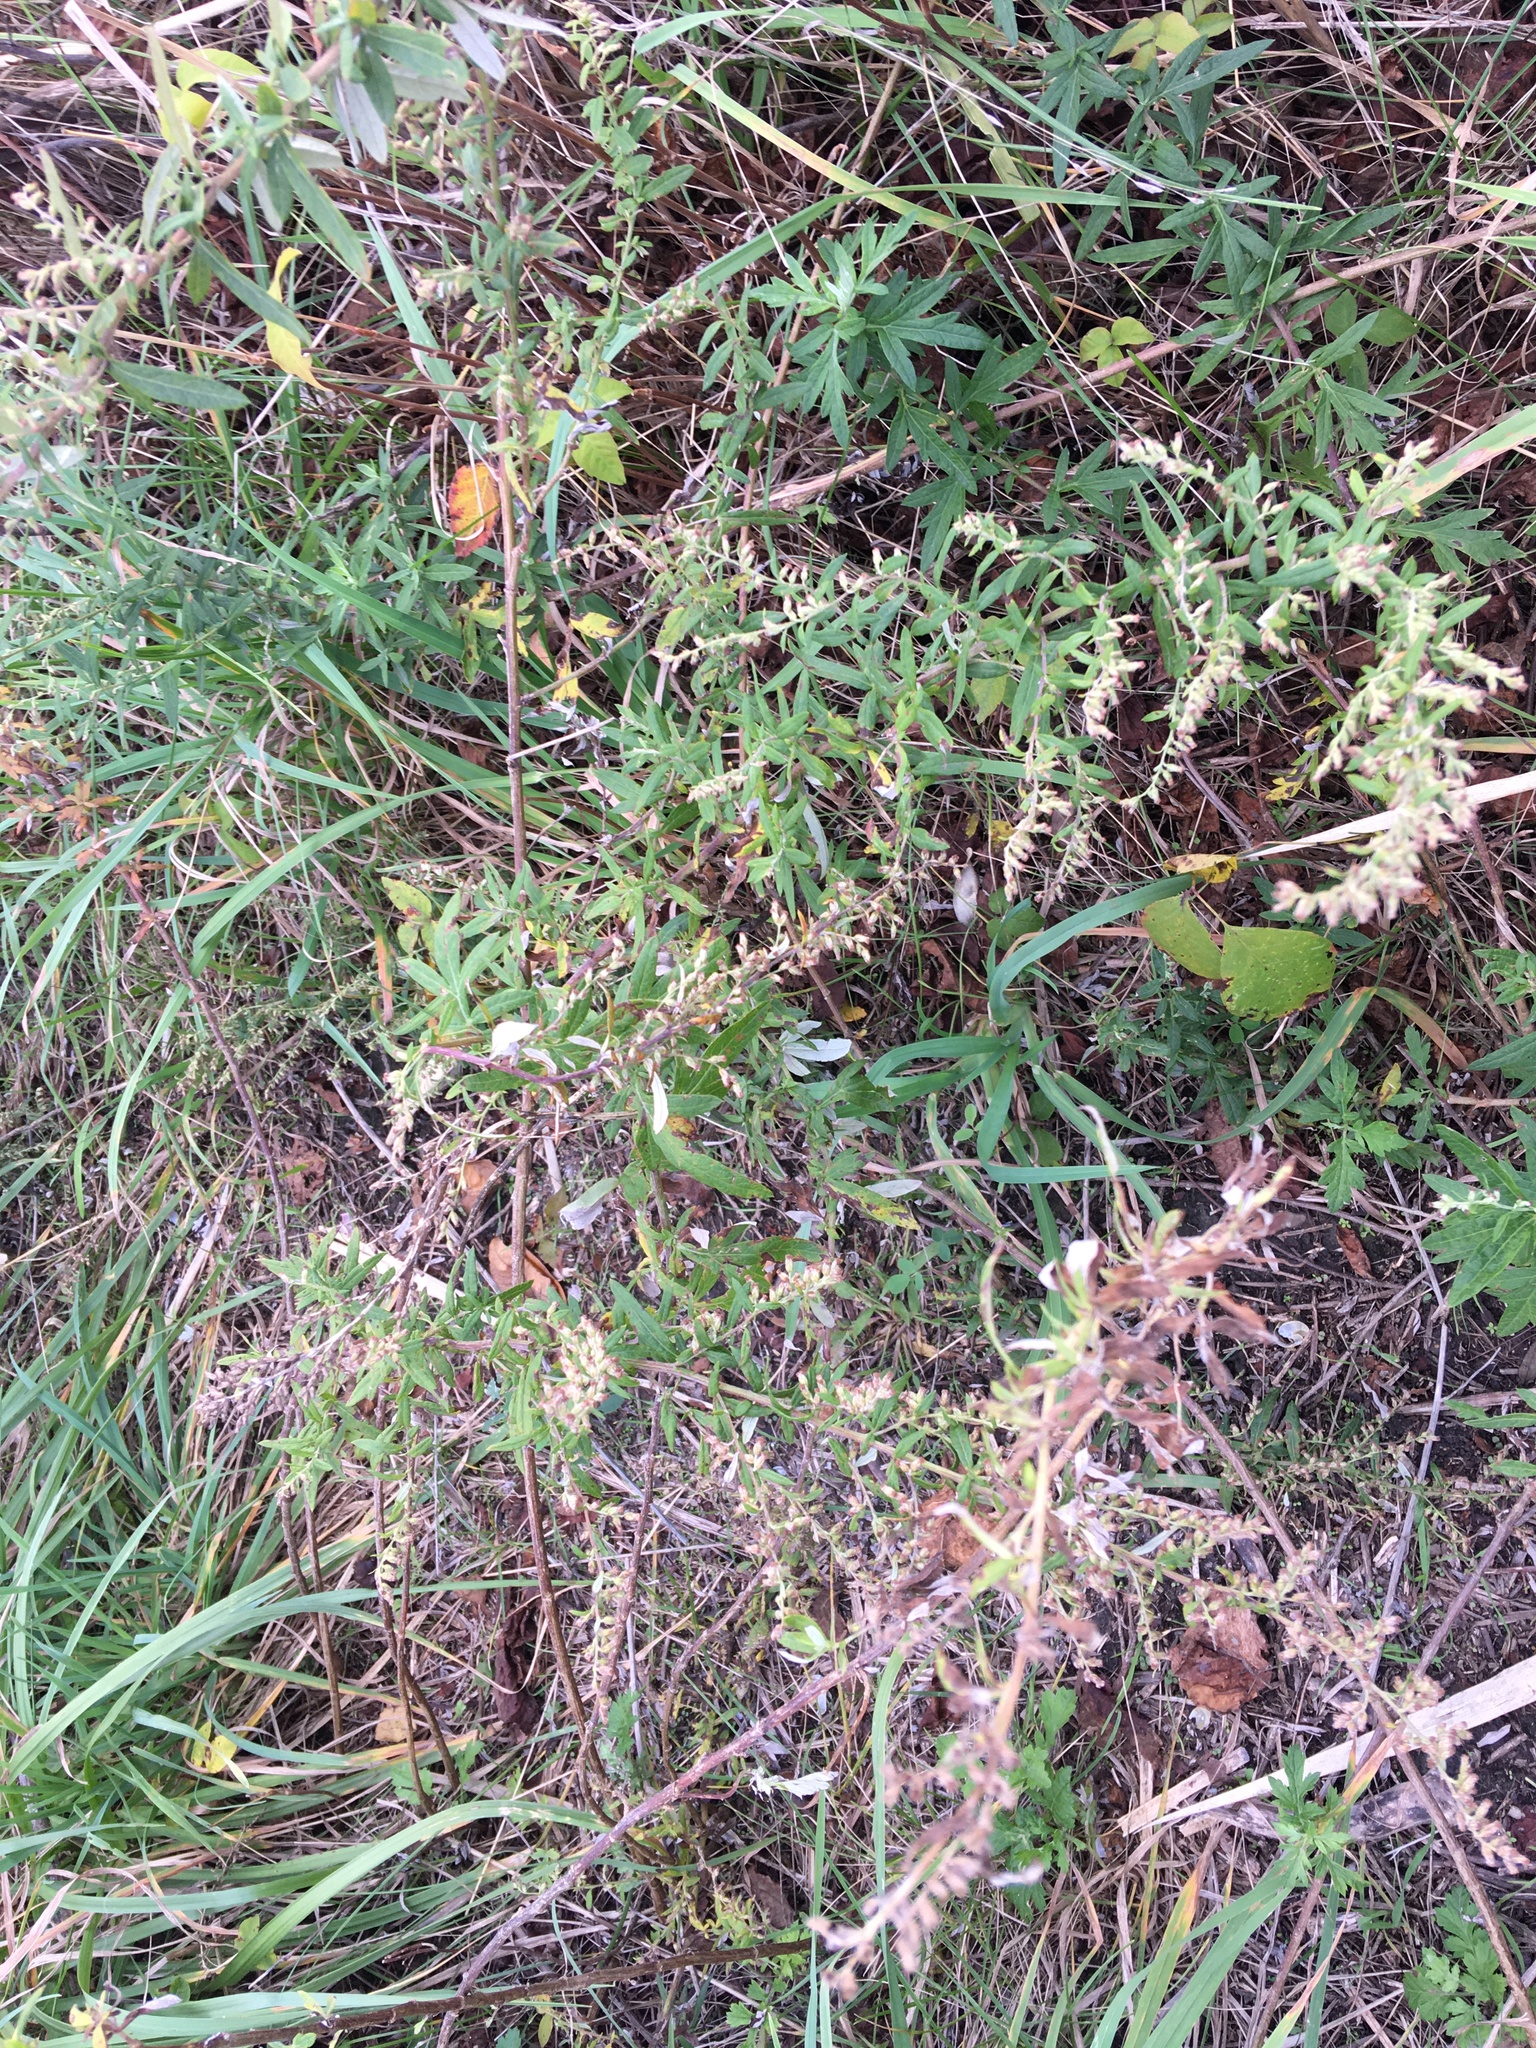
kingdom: Plantae
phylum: Tracheophyta
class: Magnoliopsida
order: Asterales
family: Asteraceae
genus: Artemisia
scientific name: Artemisia vulgaris
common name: Mugwort
